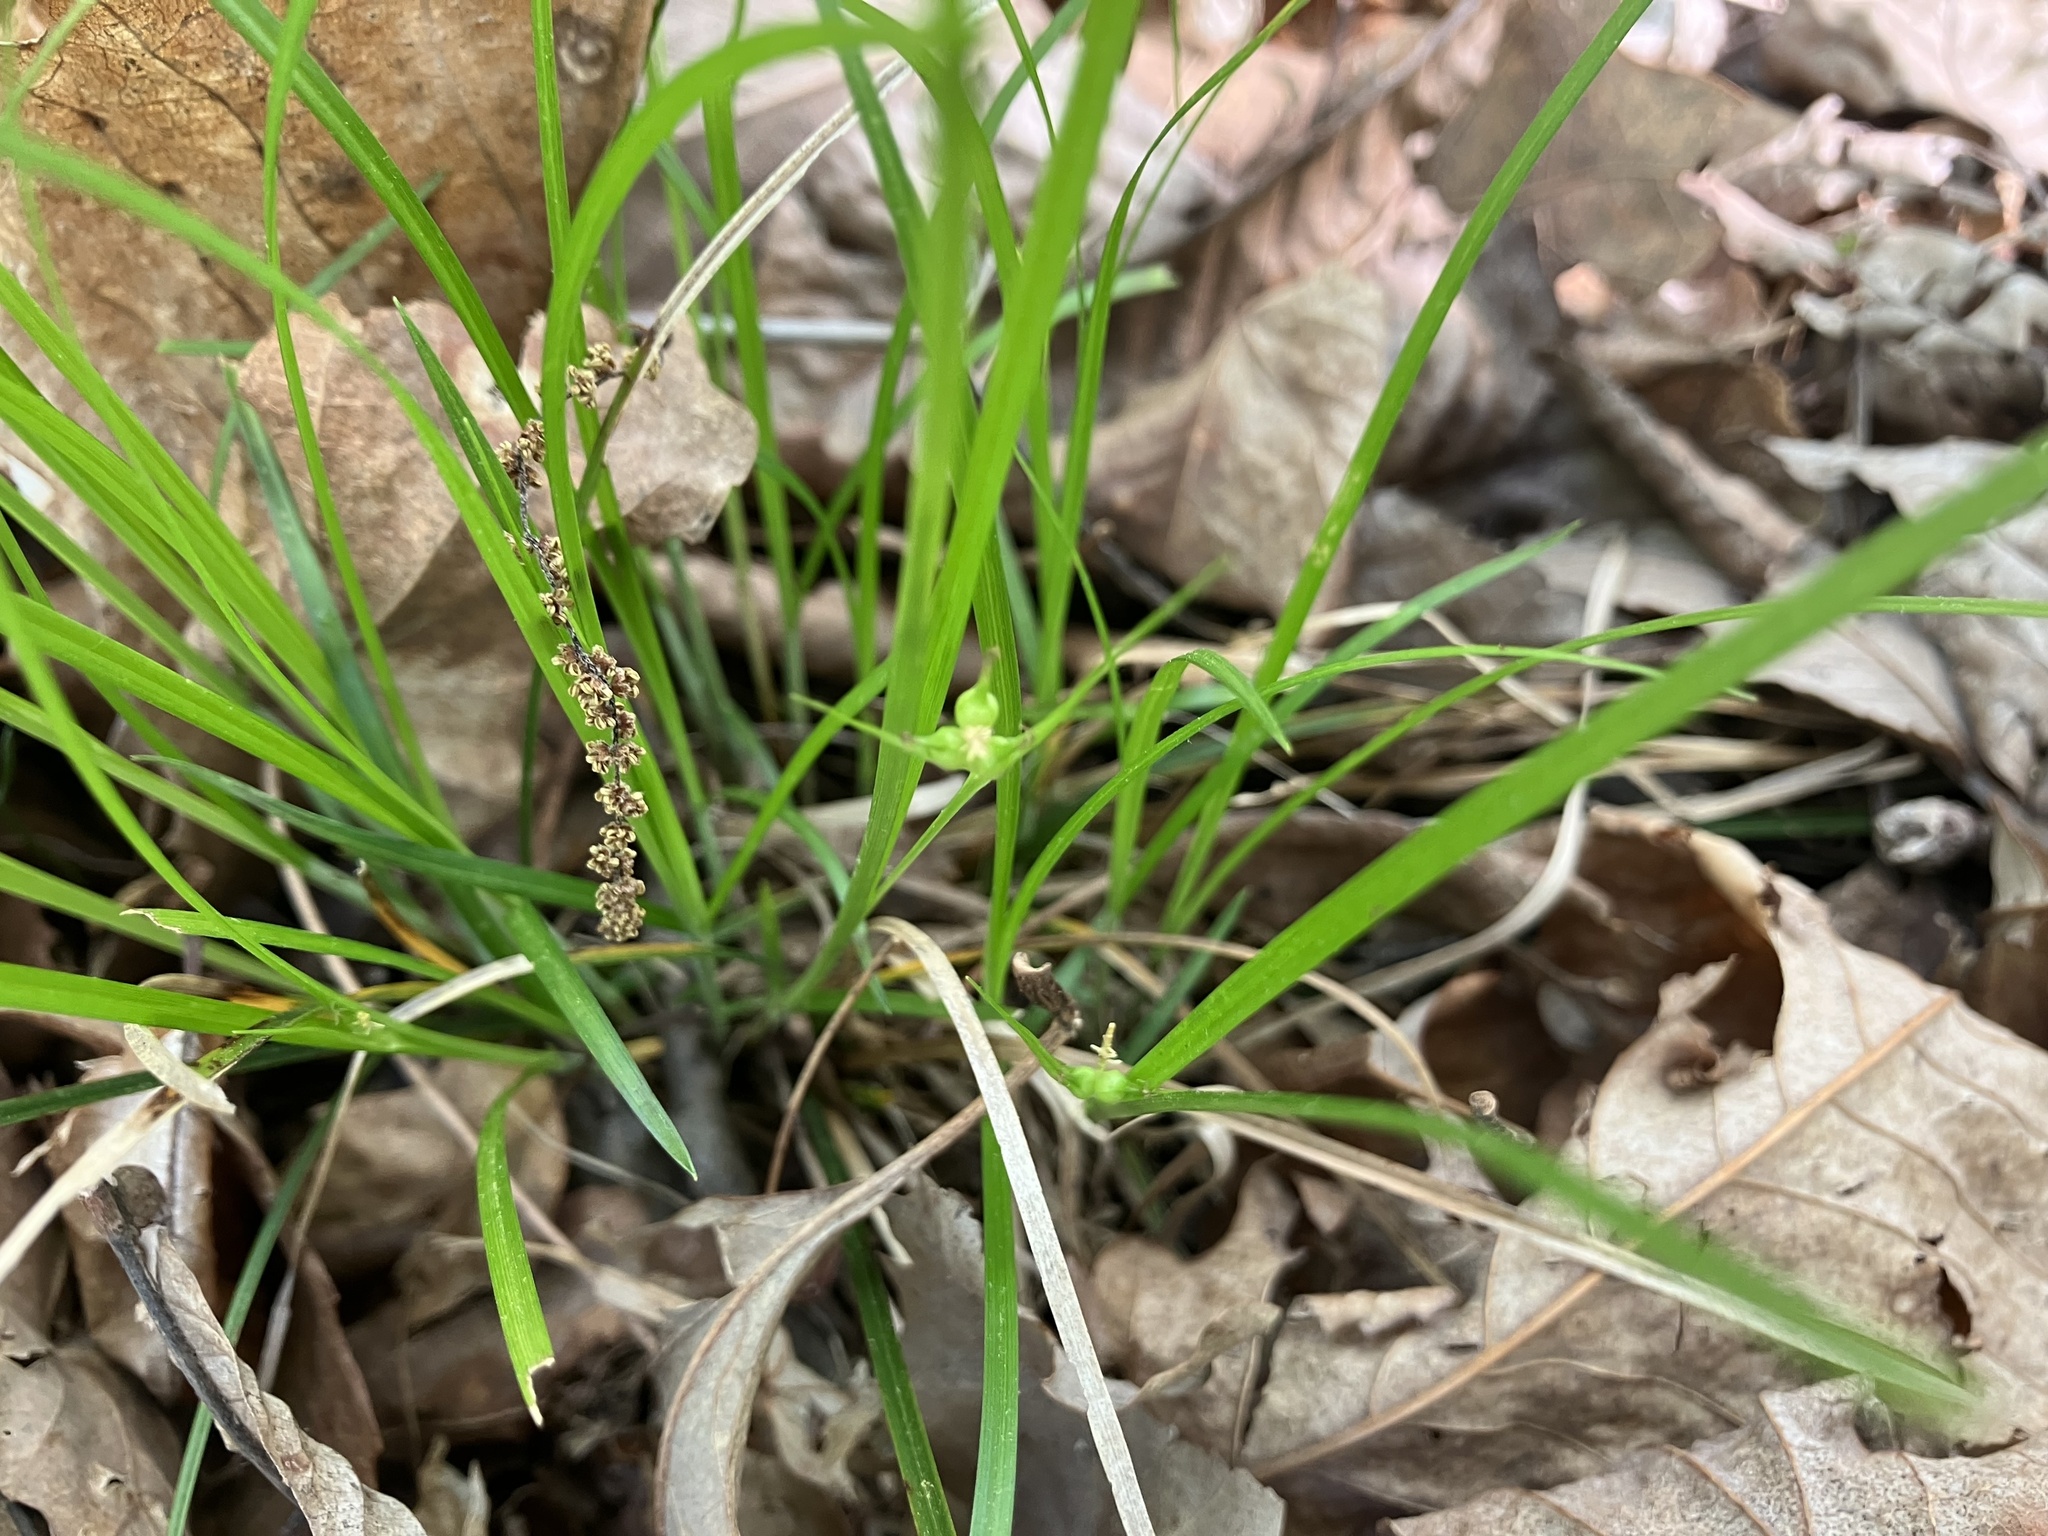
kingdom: Plantae
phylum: Tracheophyta
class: Liliopsida
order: Poales
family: Cyperaceae
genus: Carex
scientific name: Carex jamesii
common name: Grass sedge
